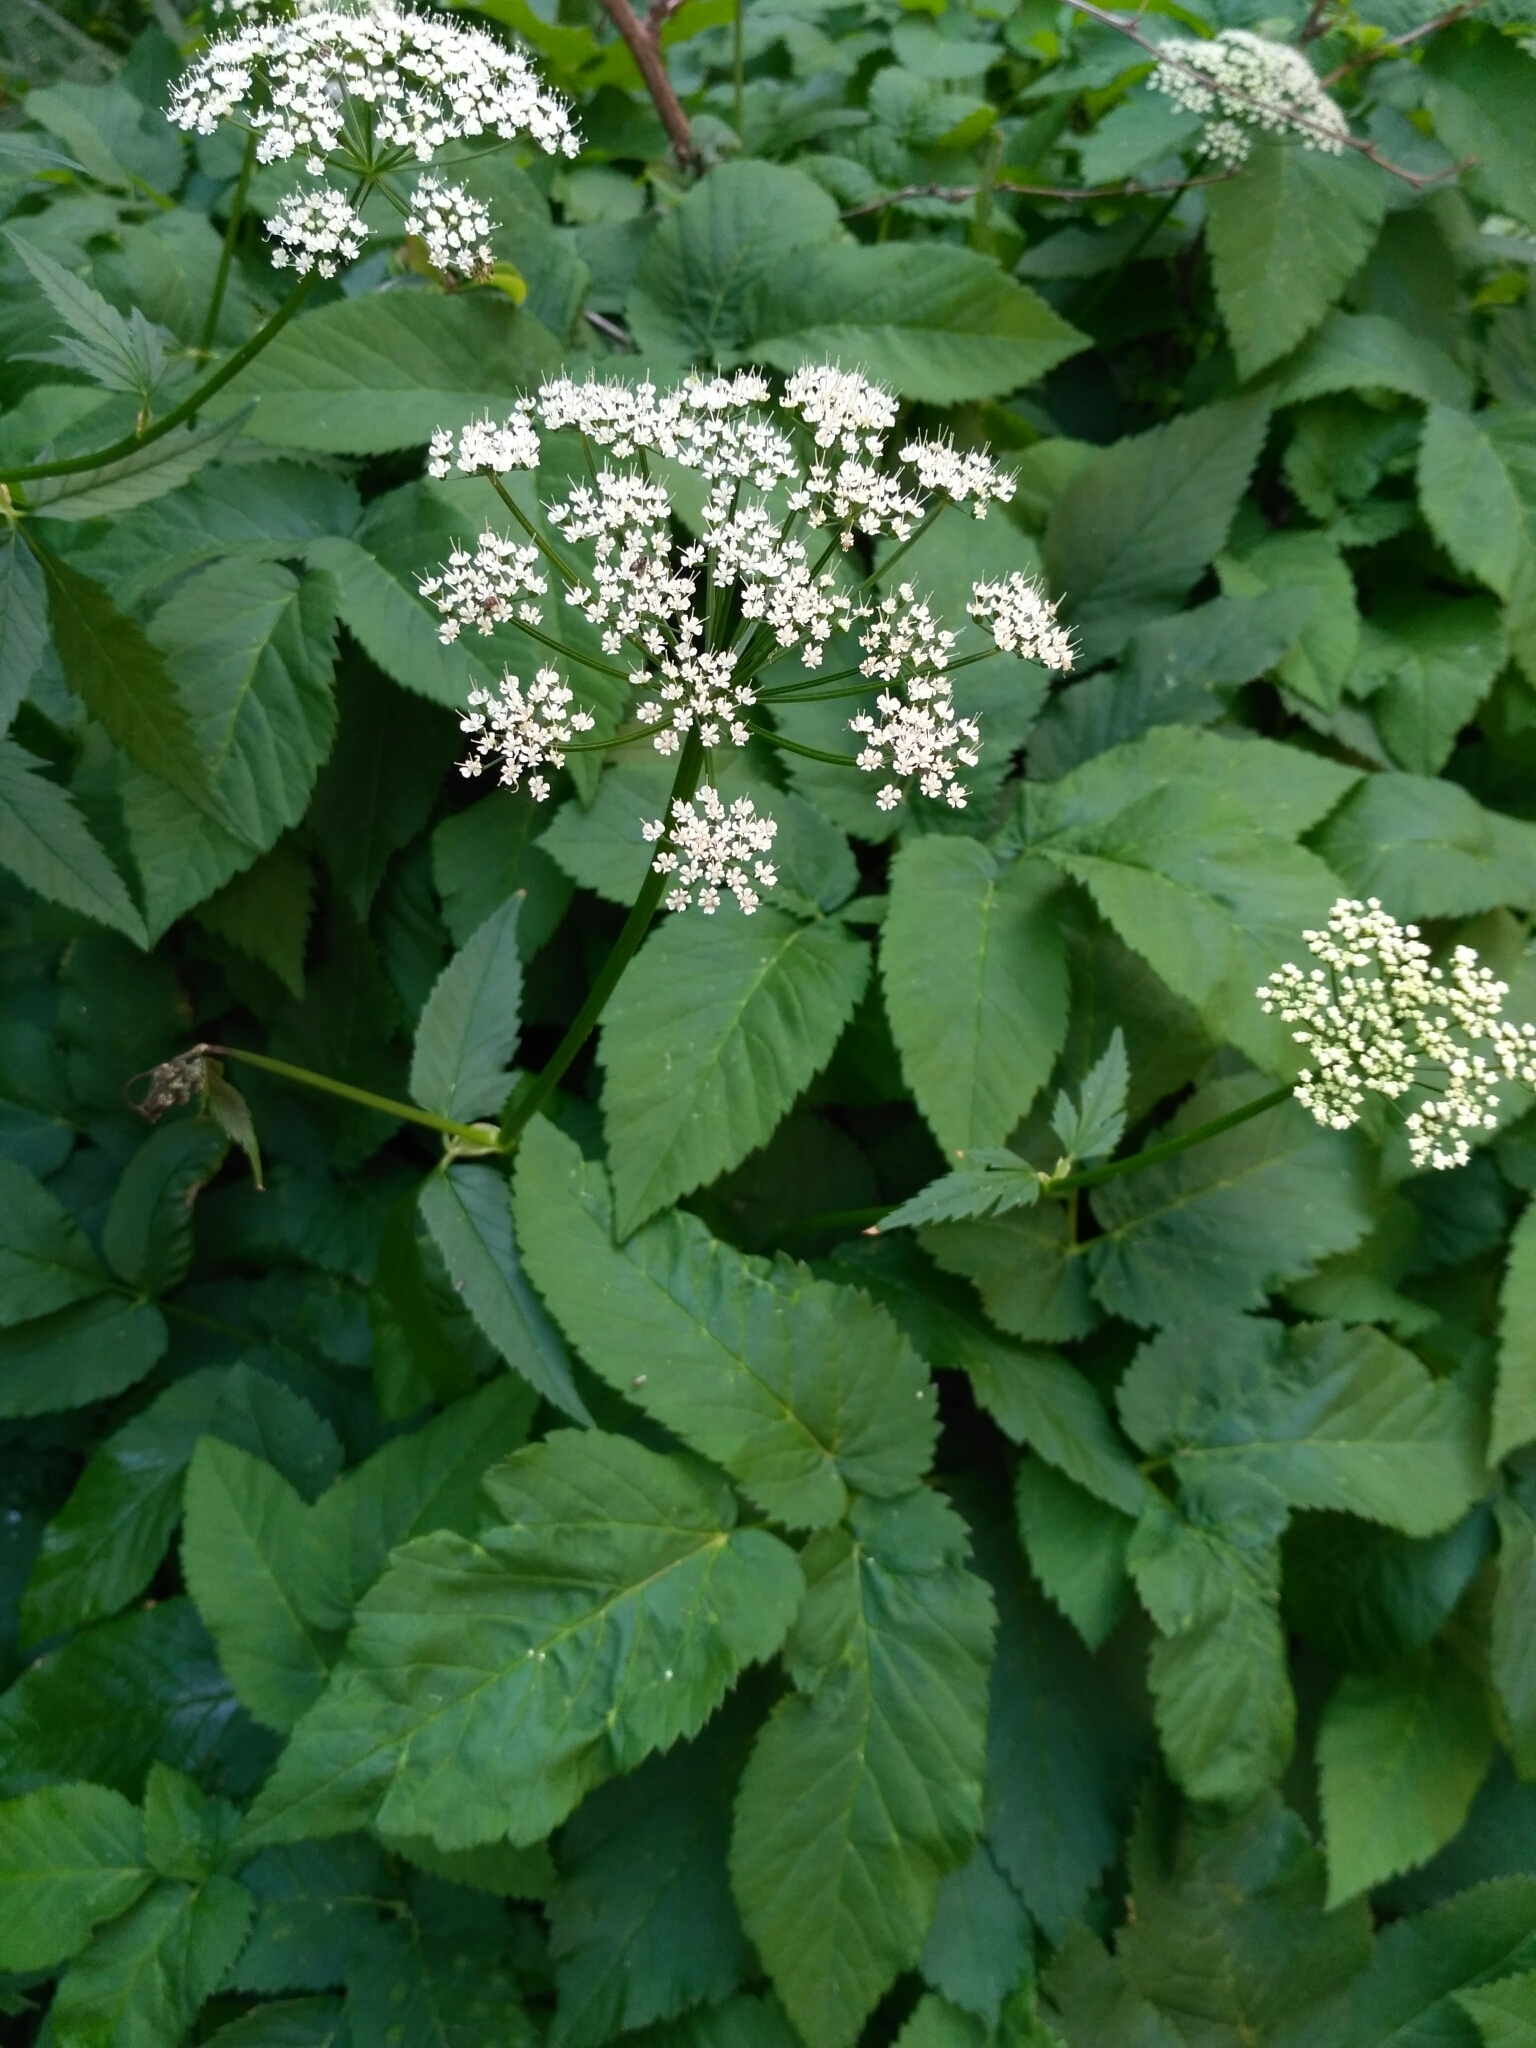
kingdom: Plantae
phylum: Tracheophyta
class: Magnoliopsida
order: Apiales
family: Apiaceae
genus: Aegopodium
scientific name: Aegopodium podagraria
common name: Ground-elder
